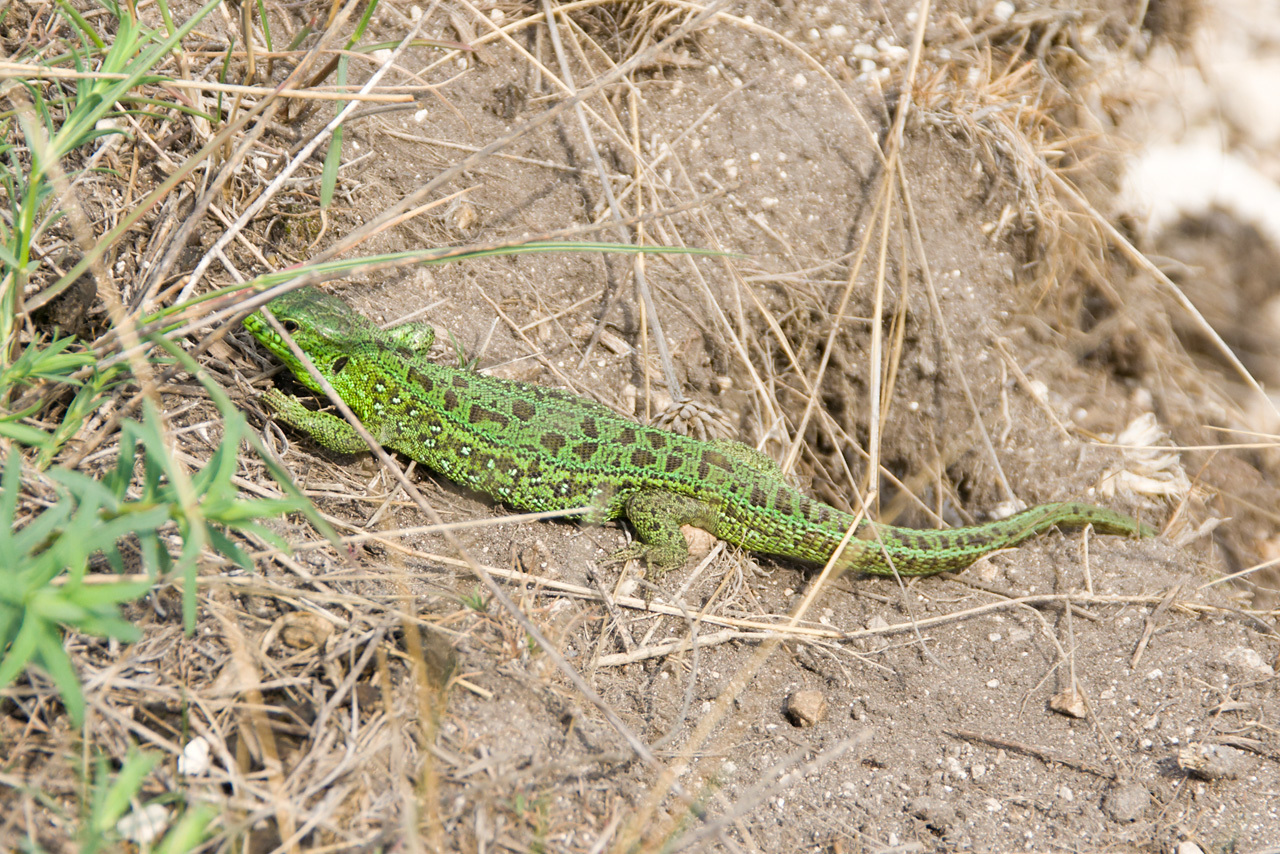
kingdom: Animalia
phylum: Chordata
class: Squamata
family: Lacertidae
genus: Lacerta
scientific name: Lacerta agilis
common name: Sand lizard
